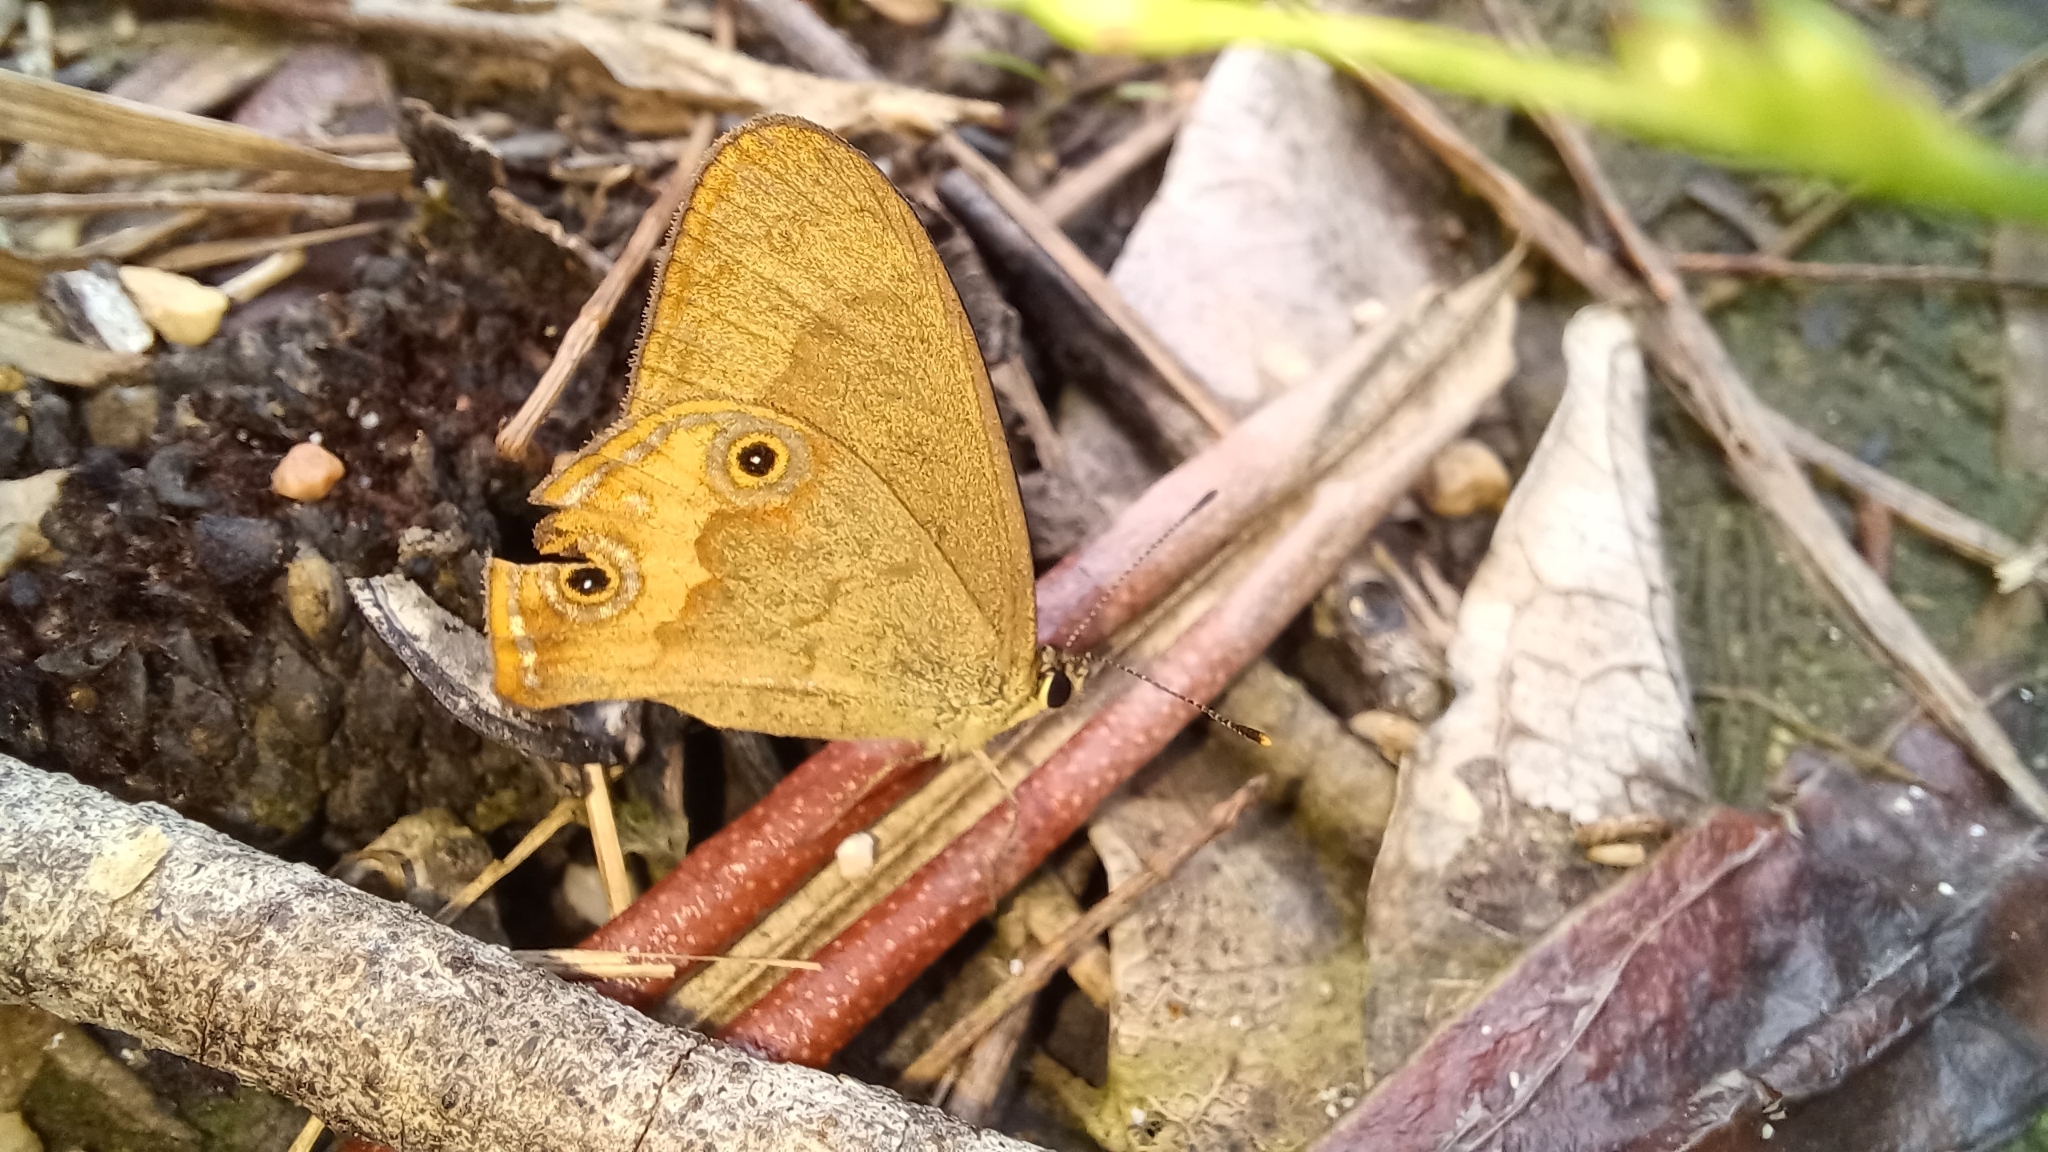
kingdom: Animalia
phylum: Arthropoda
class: Insecta
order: Lepidoptera
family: Nymphalidae
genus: Hypocysta
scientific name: Hypocysta metirius
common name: Brown ringlet
